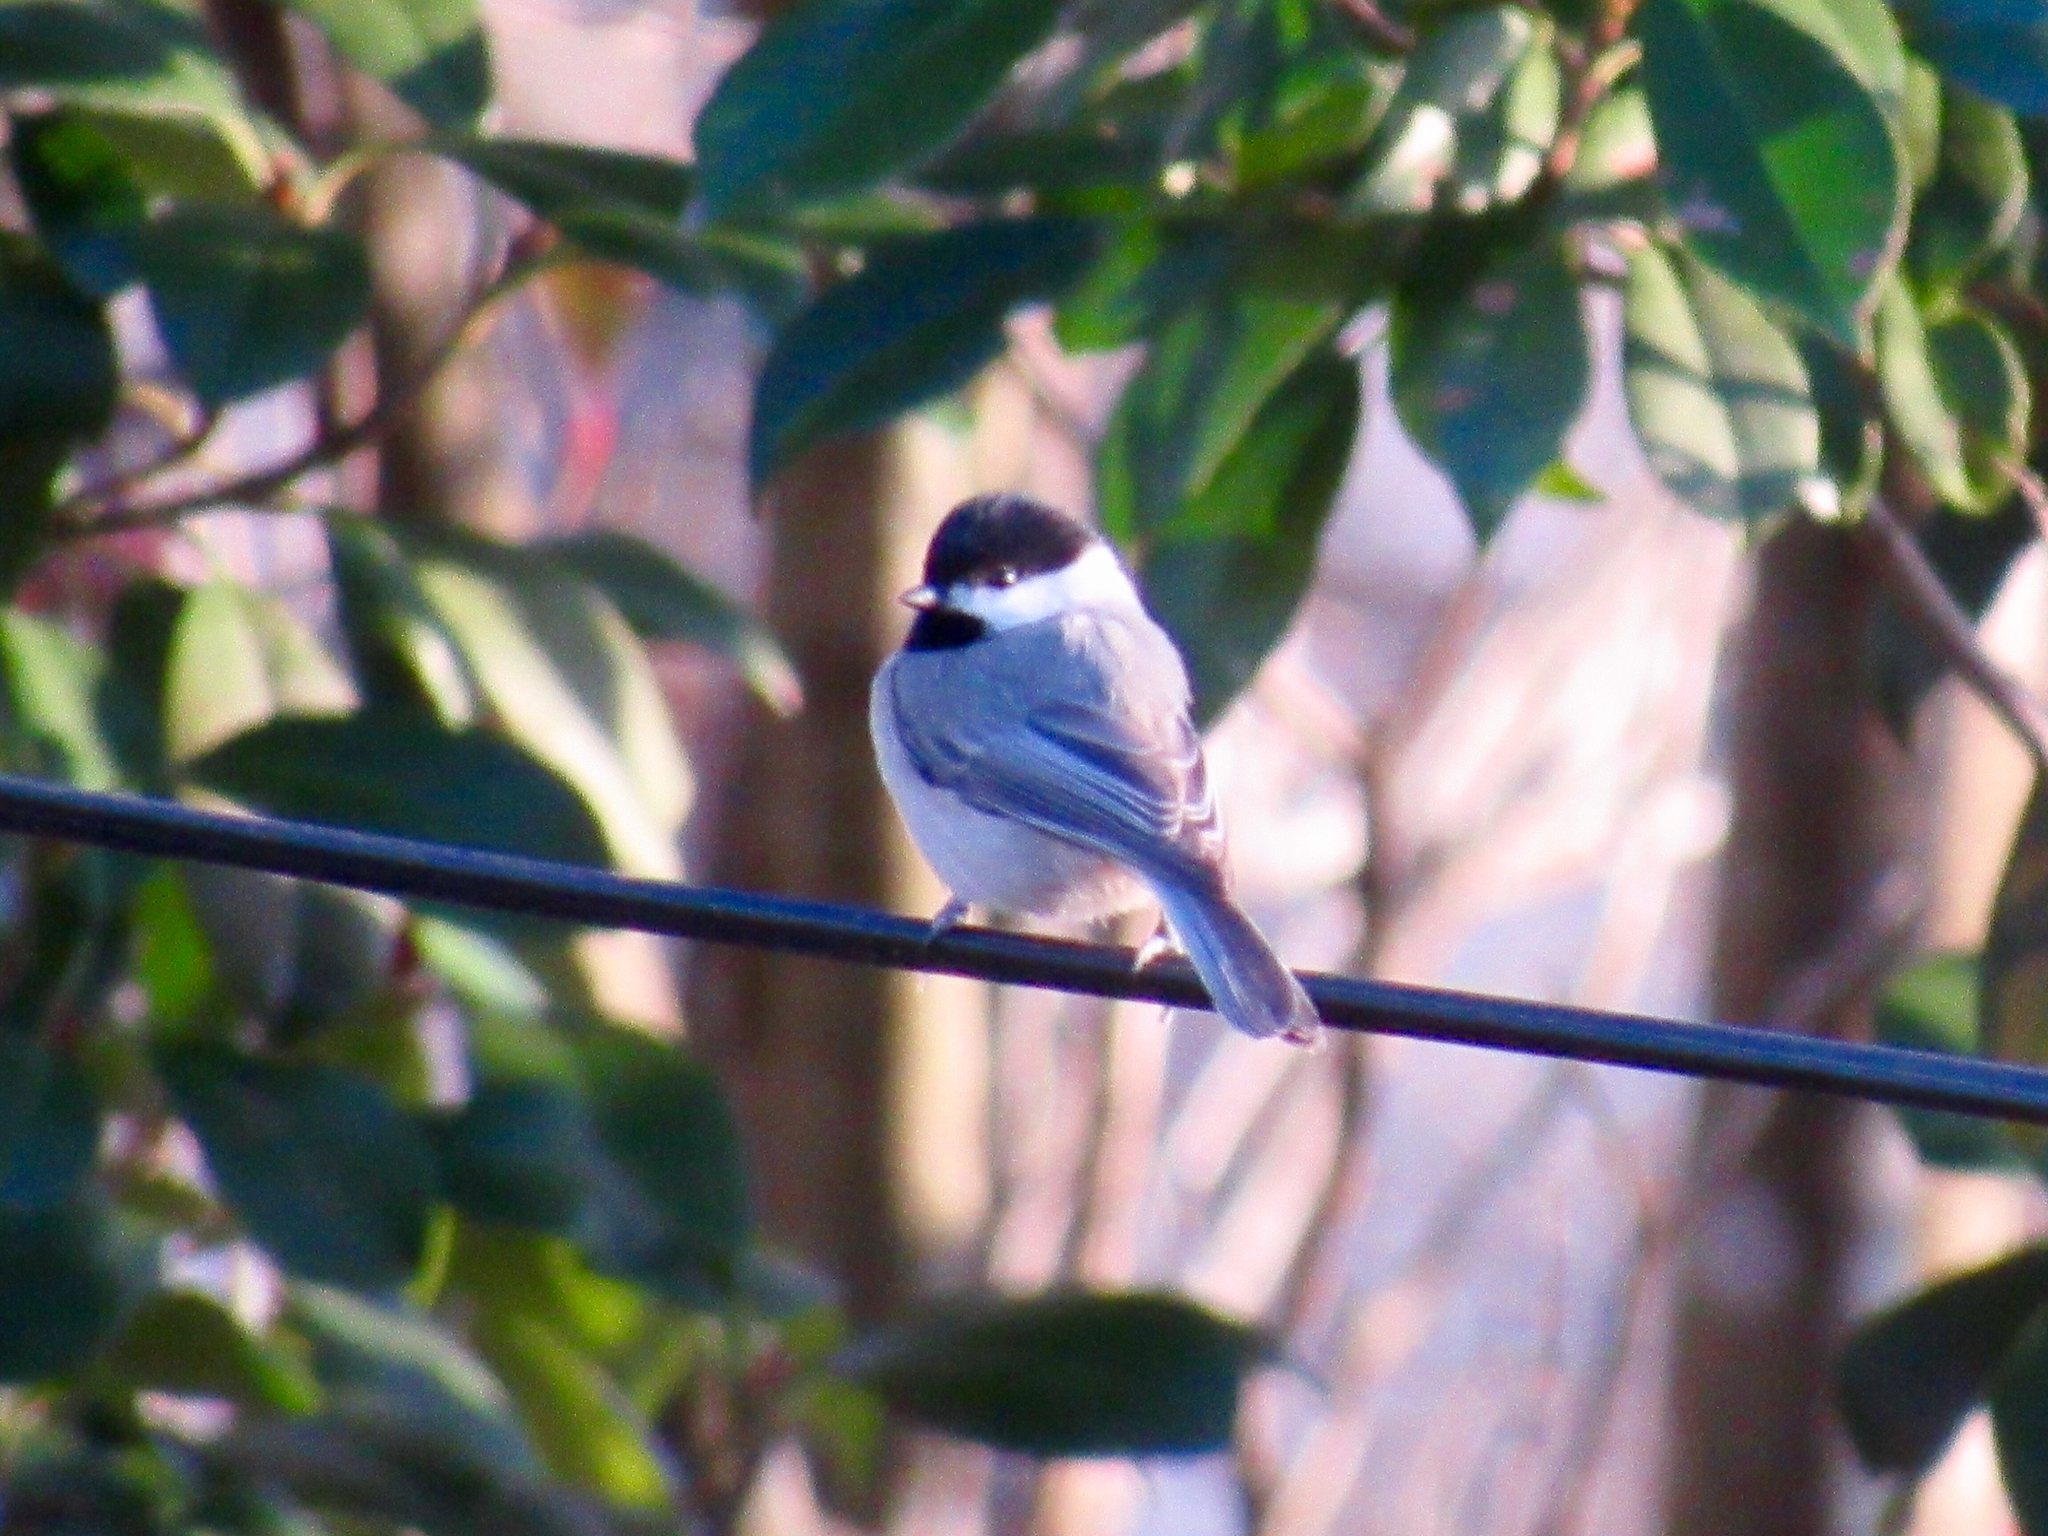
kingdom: Animalia
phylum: Chordata
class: Aves
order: Passeriformes
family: Paridae
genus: Poecile
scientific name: Poecile carolinensis
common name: Carolina chickadee
